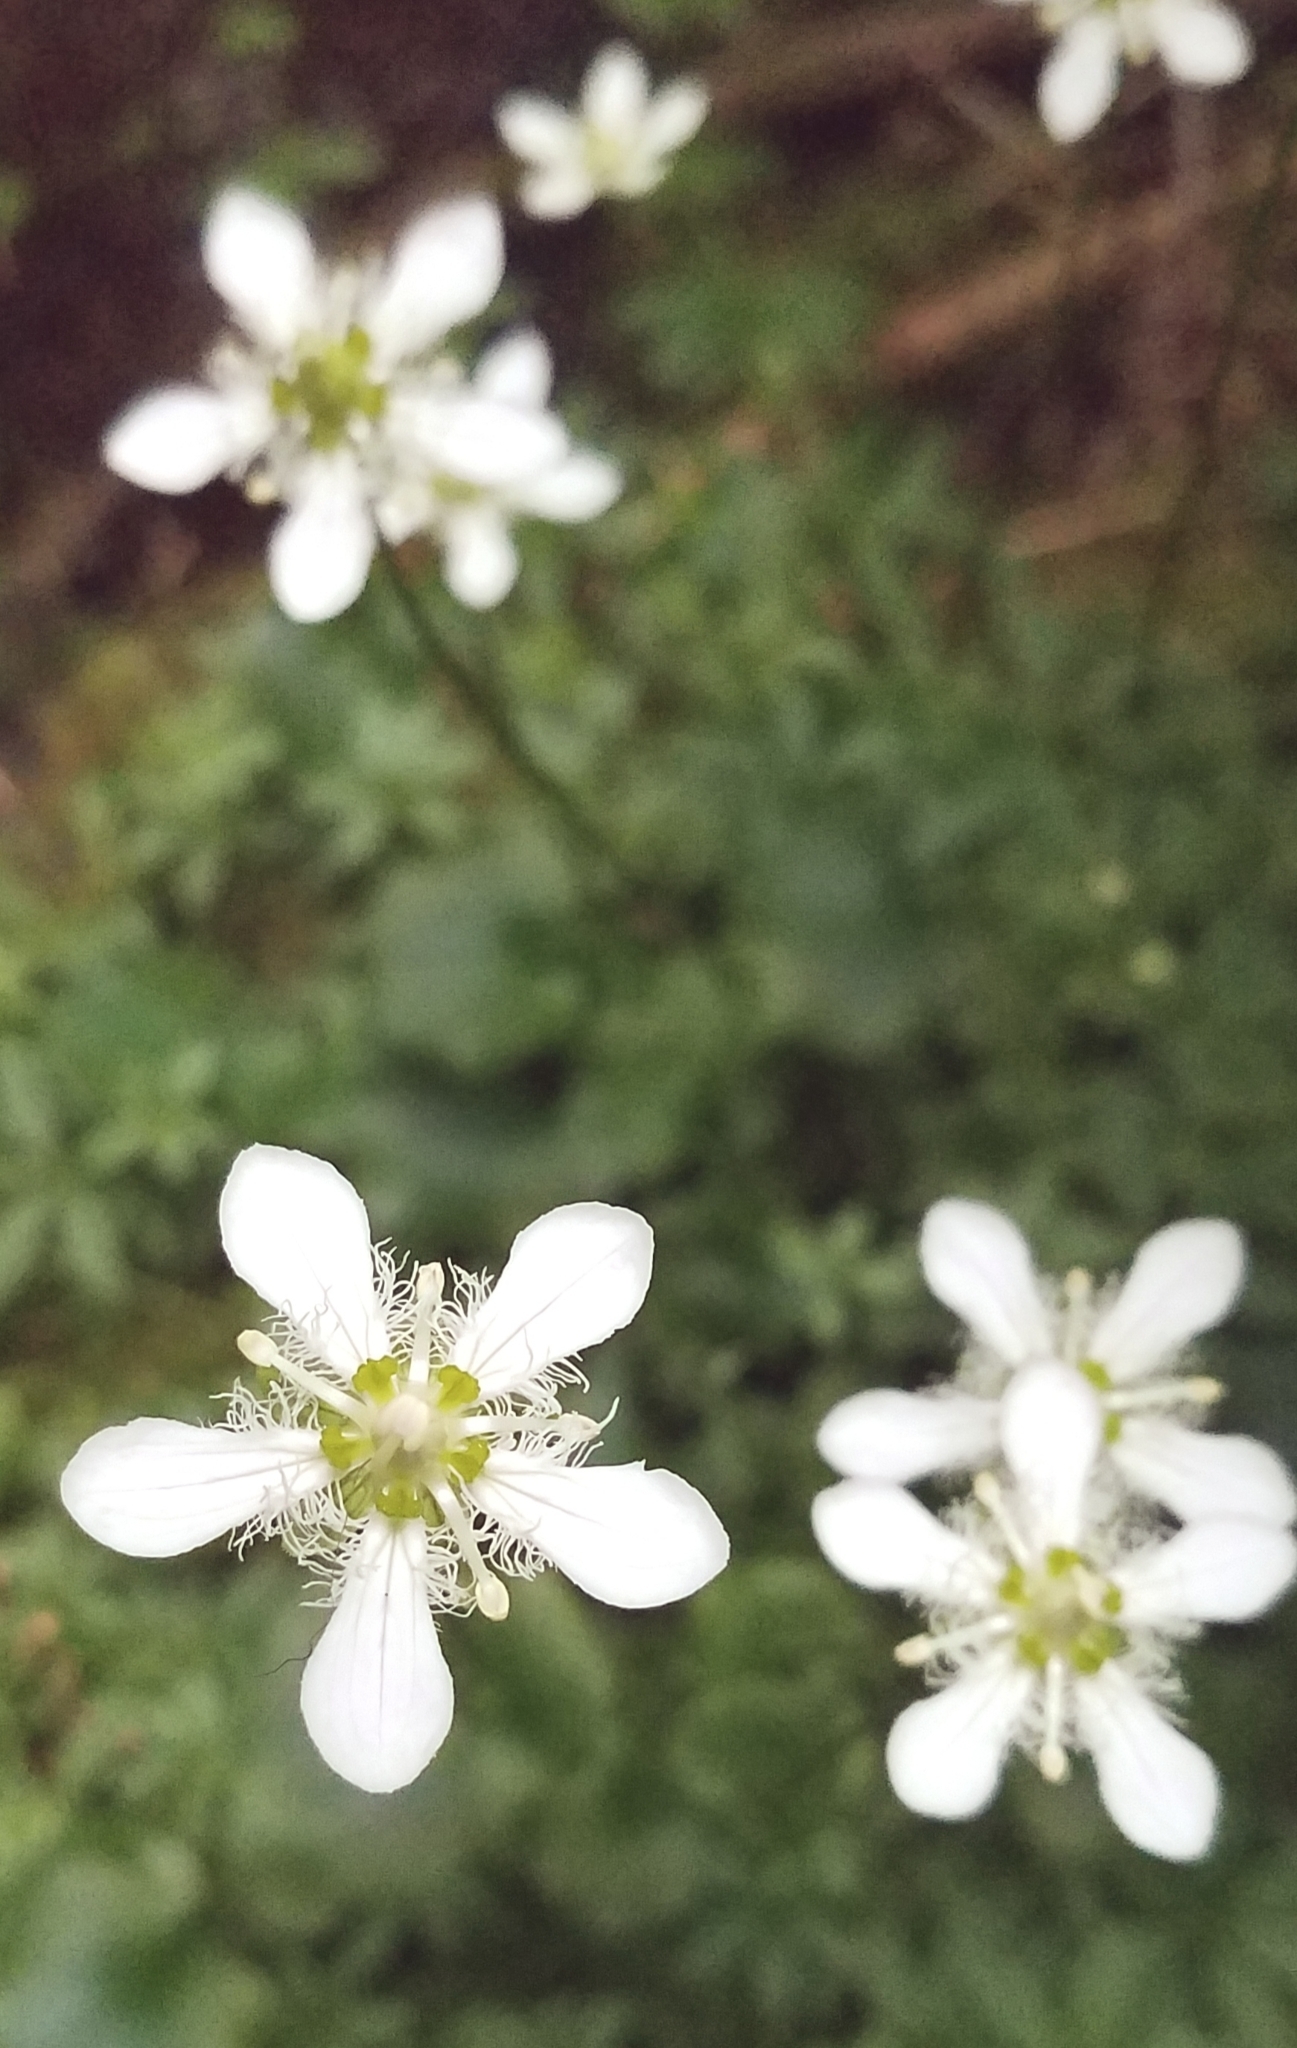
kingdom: Plantae
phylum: Tracheophyta
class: Magnoliopsida
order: Celastrales
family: Parnassiaceae
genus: Parnassia
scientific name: Parnassia fimbriata
